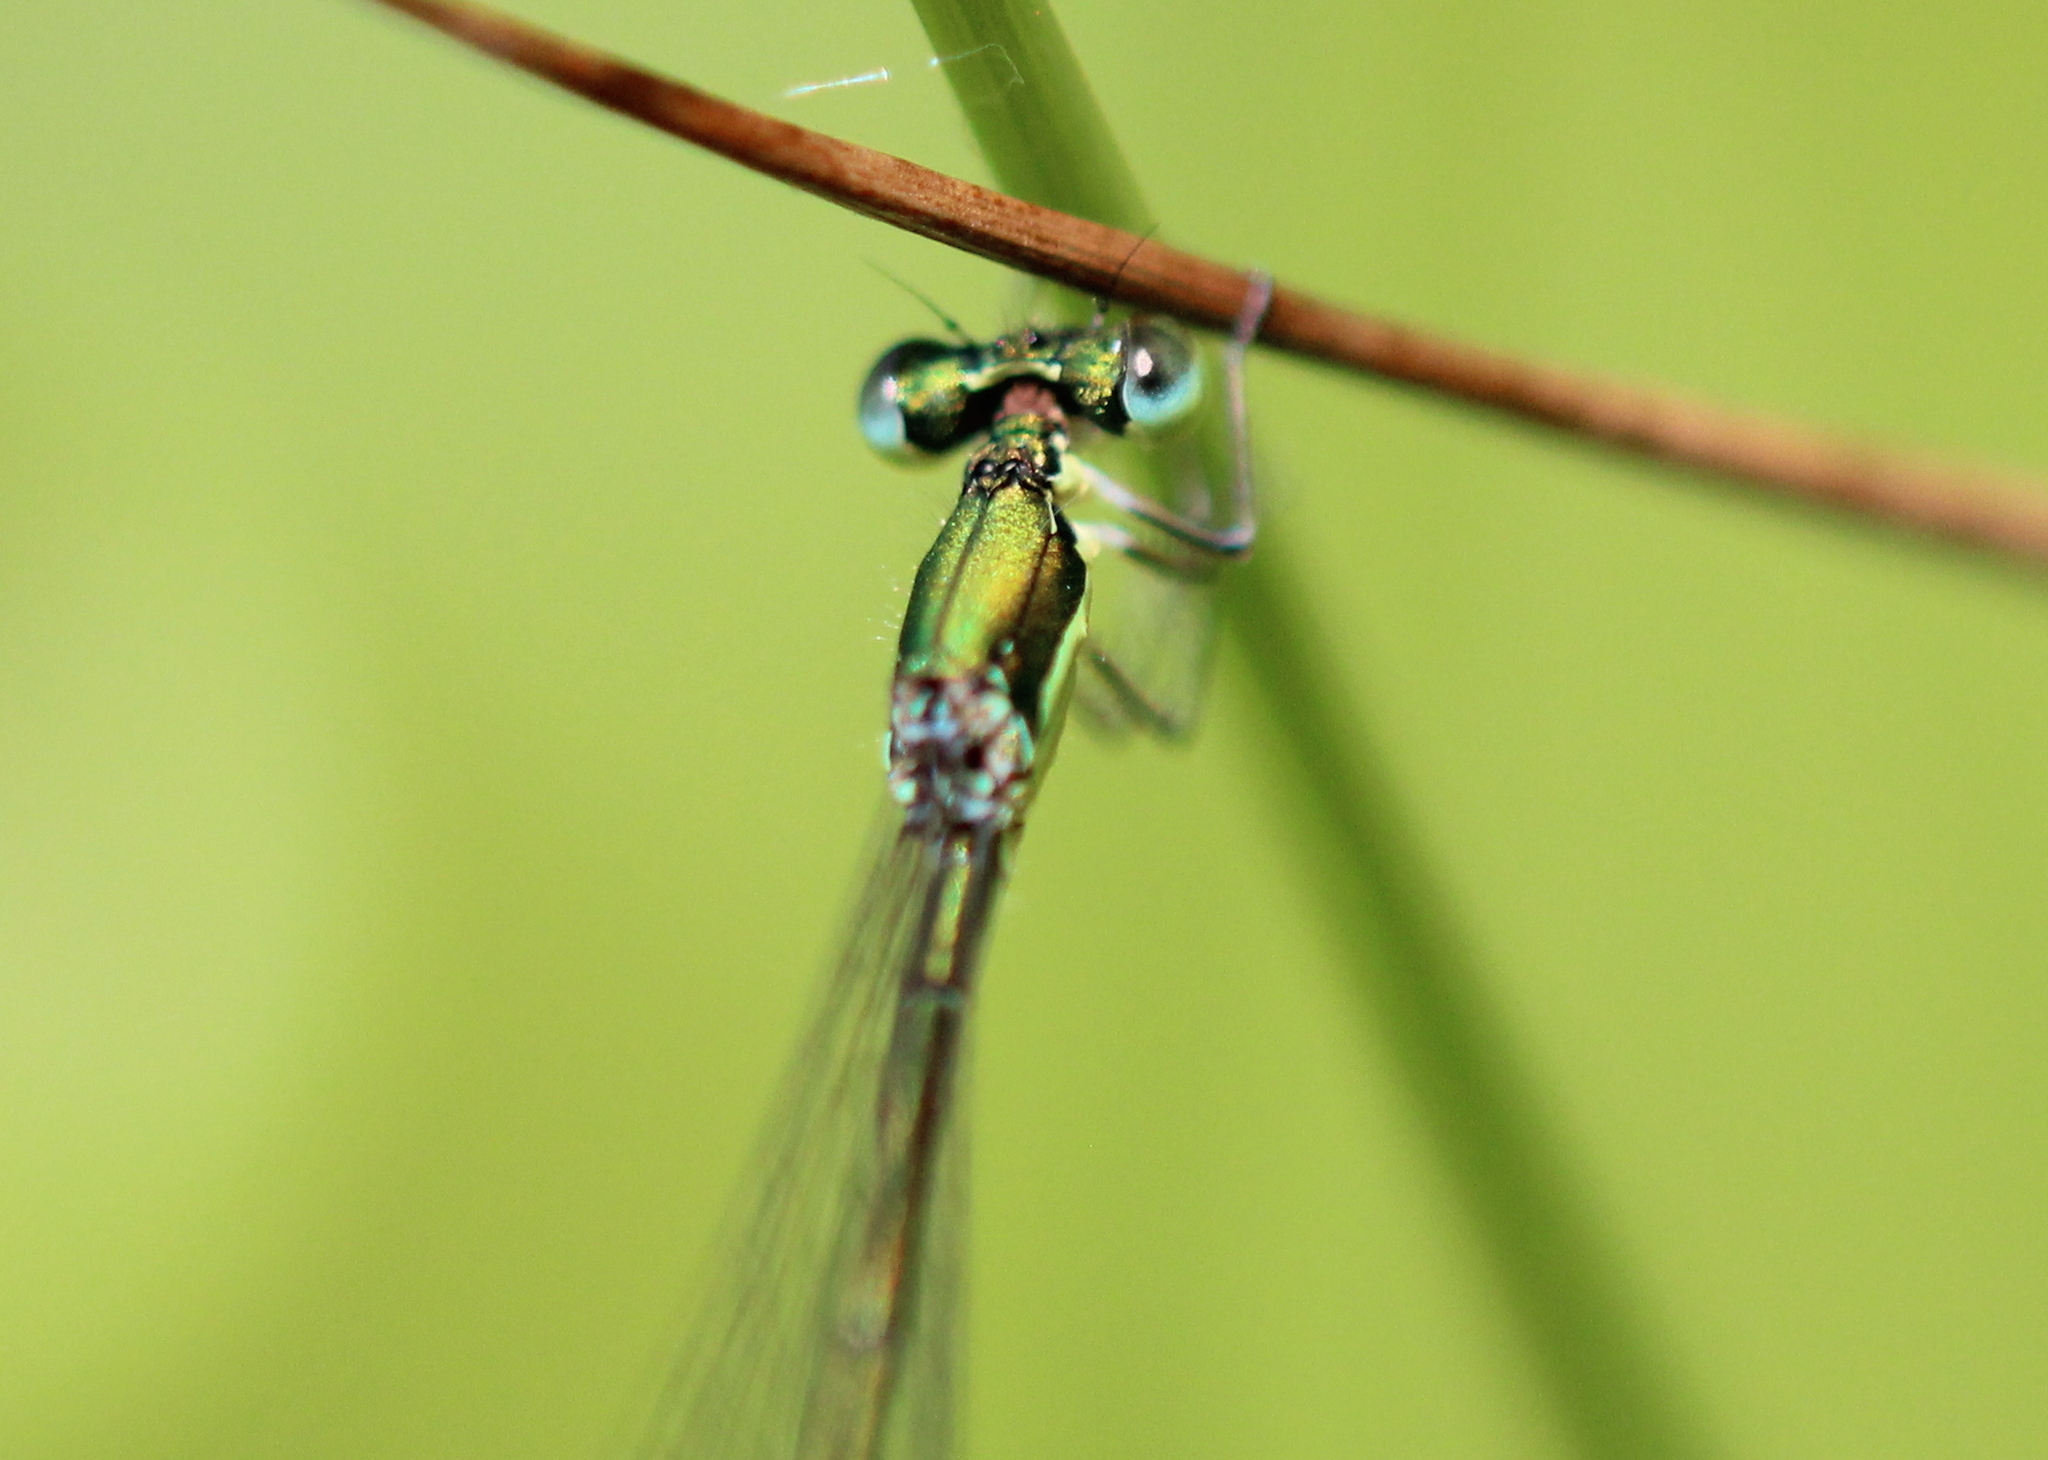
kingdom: Animalia
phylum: Arthropoda
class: Insecta
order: Odonata
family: Coenagrionidae
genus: Nehalennia
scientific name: Nehalennia irene
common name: Sedge sprite
